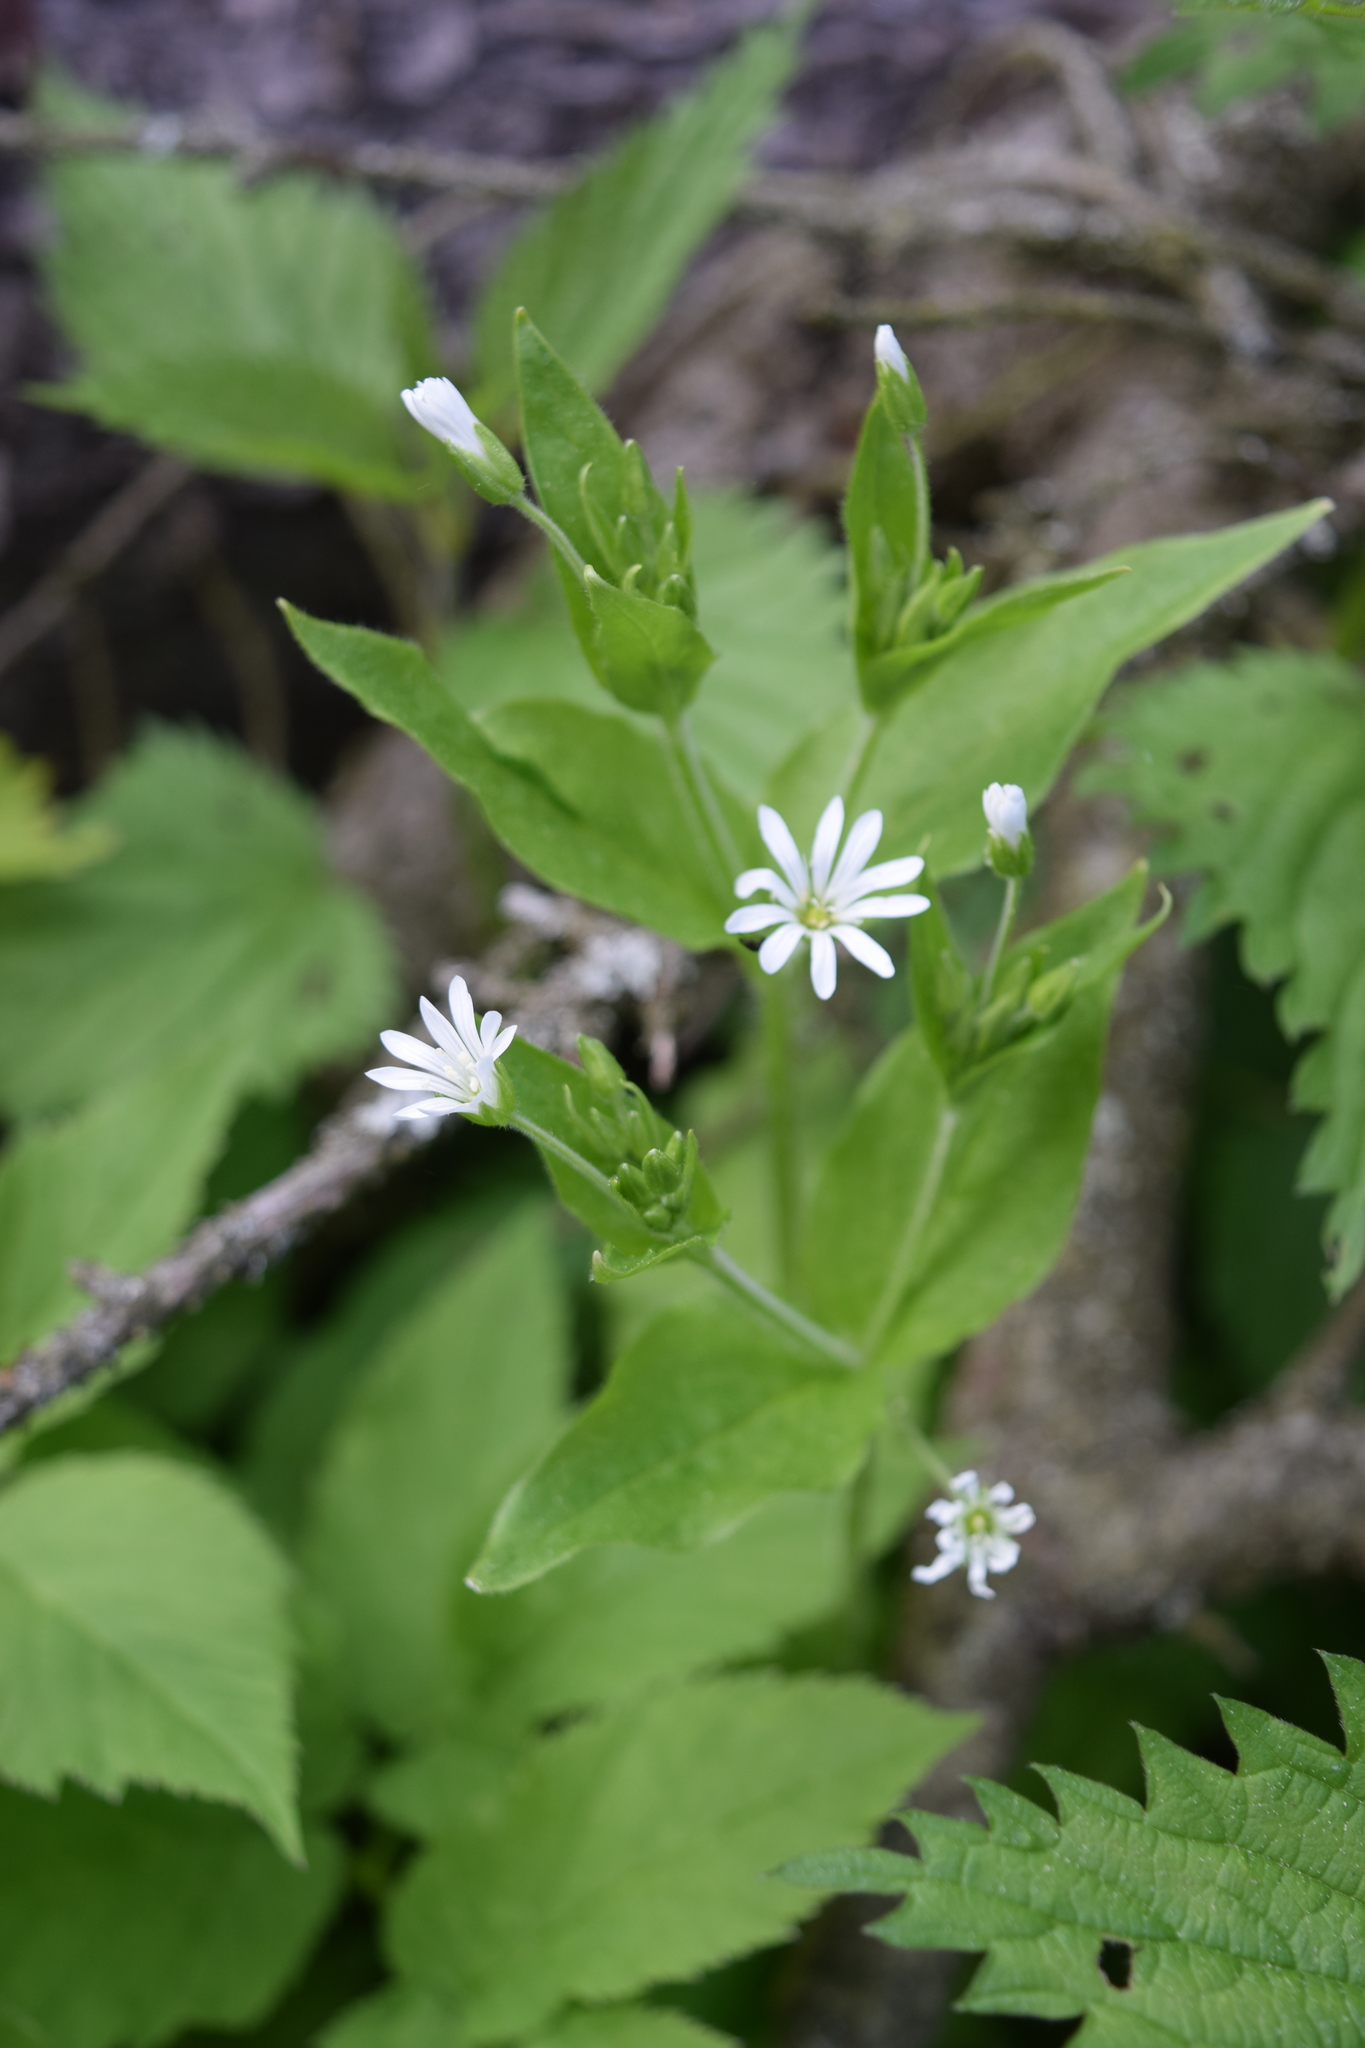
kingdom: Plantae
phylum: Tracheophyta
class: Magnoliopsida
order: Caryophyllales
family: Caryophyllaceae
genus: Stellaria
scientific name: Stellaria nemorum
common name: Wood stitchwort
